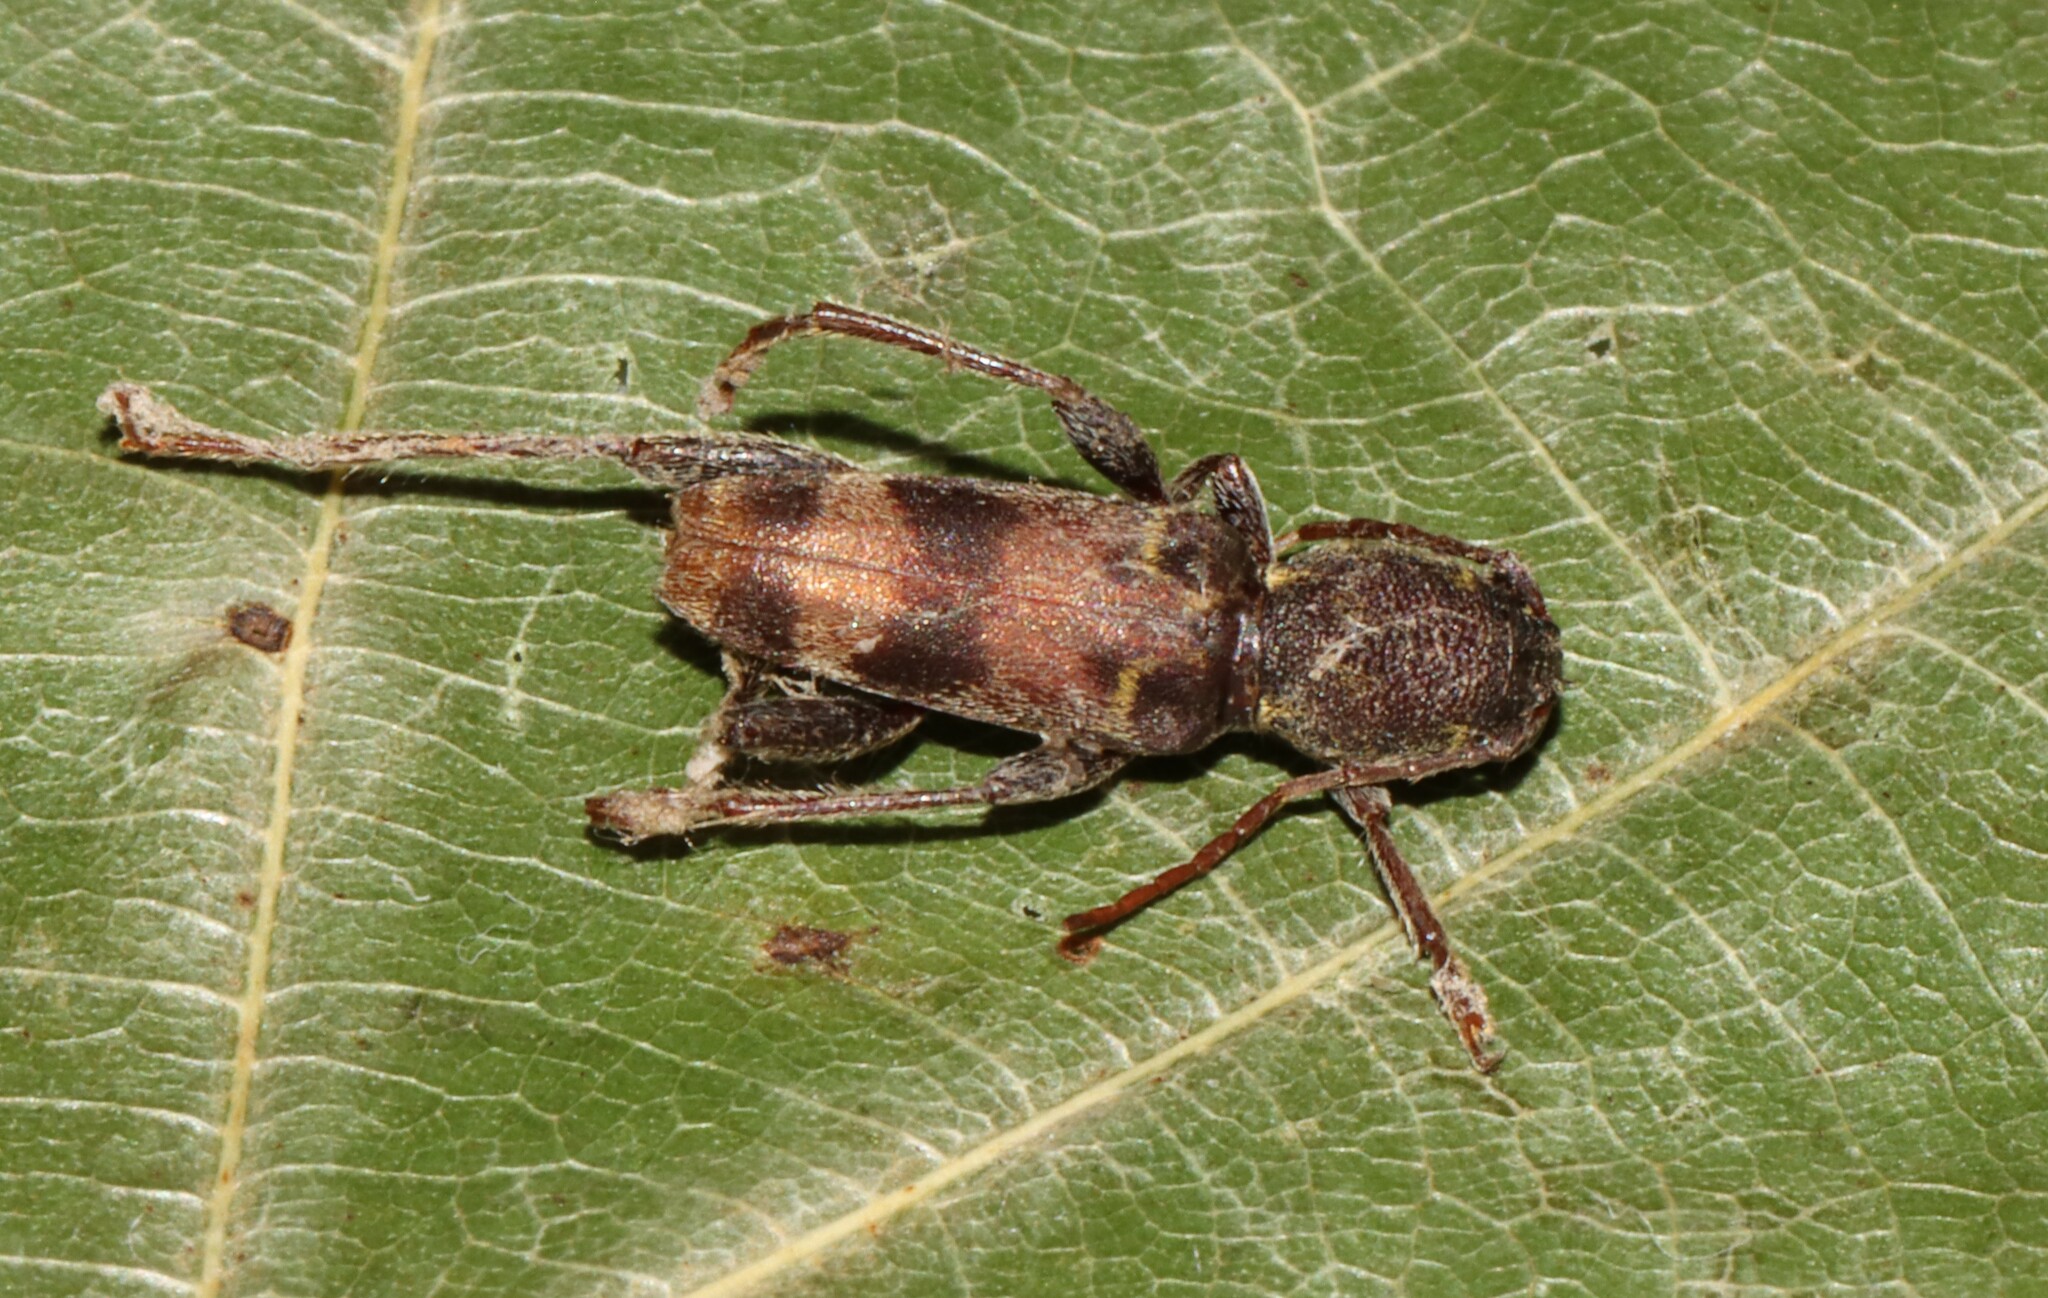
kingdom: Animalia
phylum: Arthropoda
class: Insecta
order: Coleoptera
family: Cerambycidae
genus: Xylotrechus
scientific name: Xylotrechus colonus
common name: Long-horned beetle
